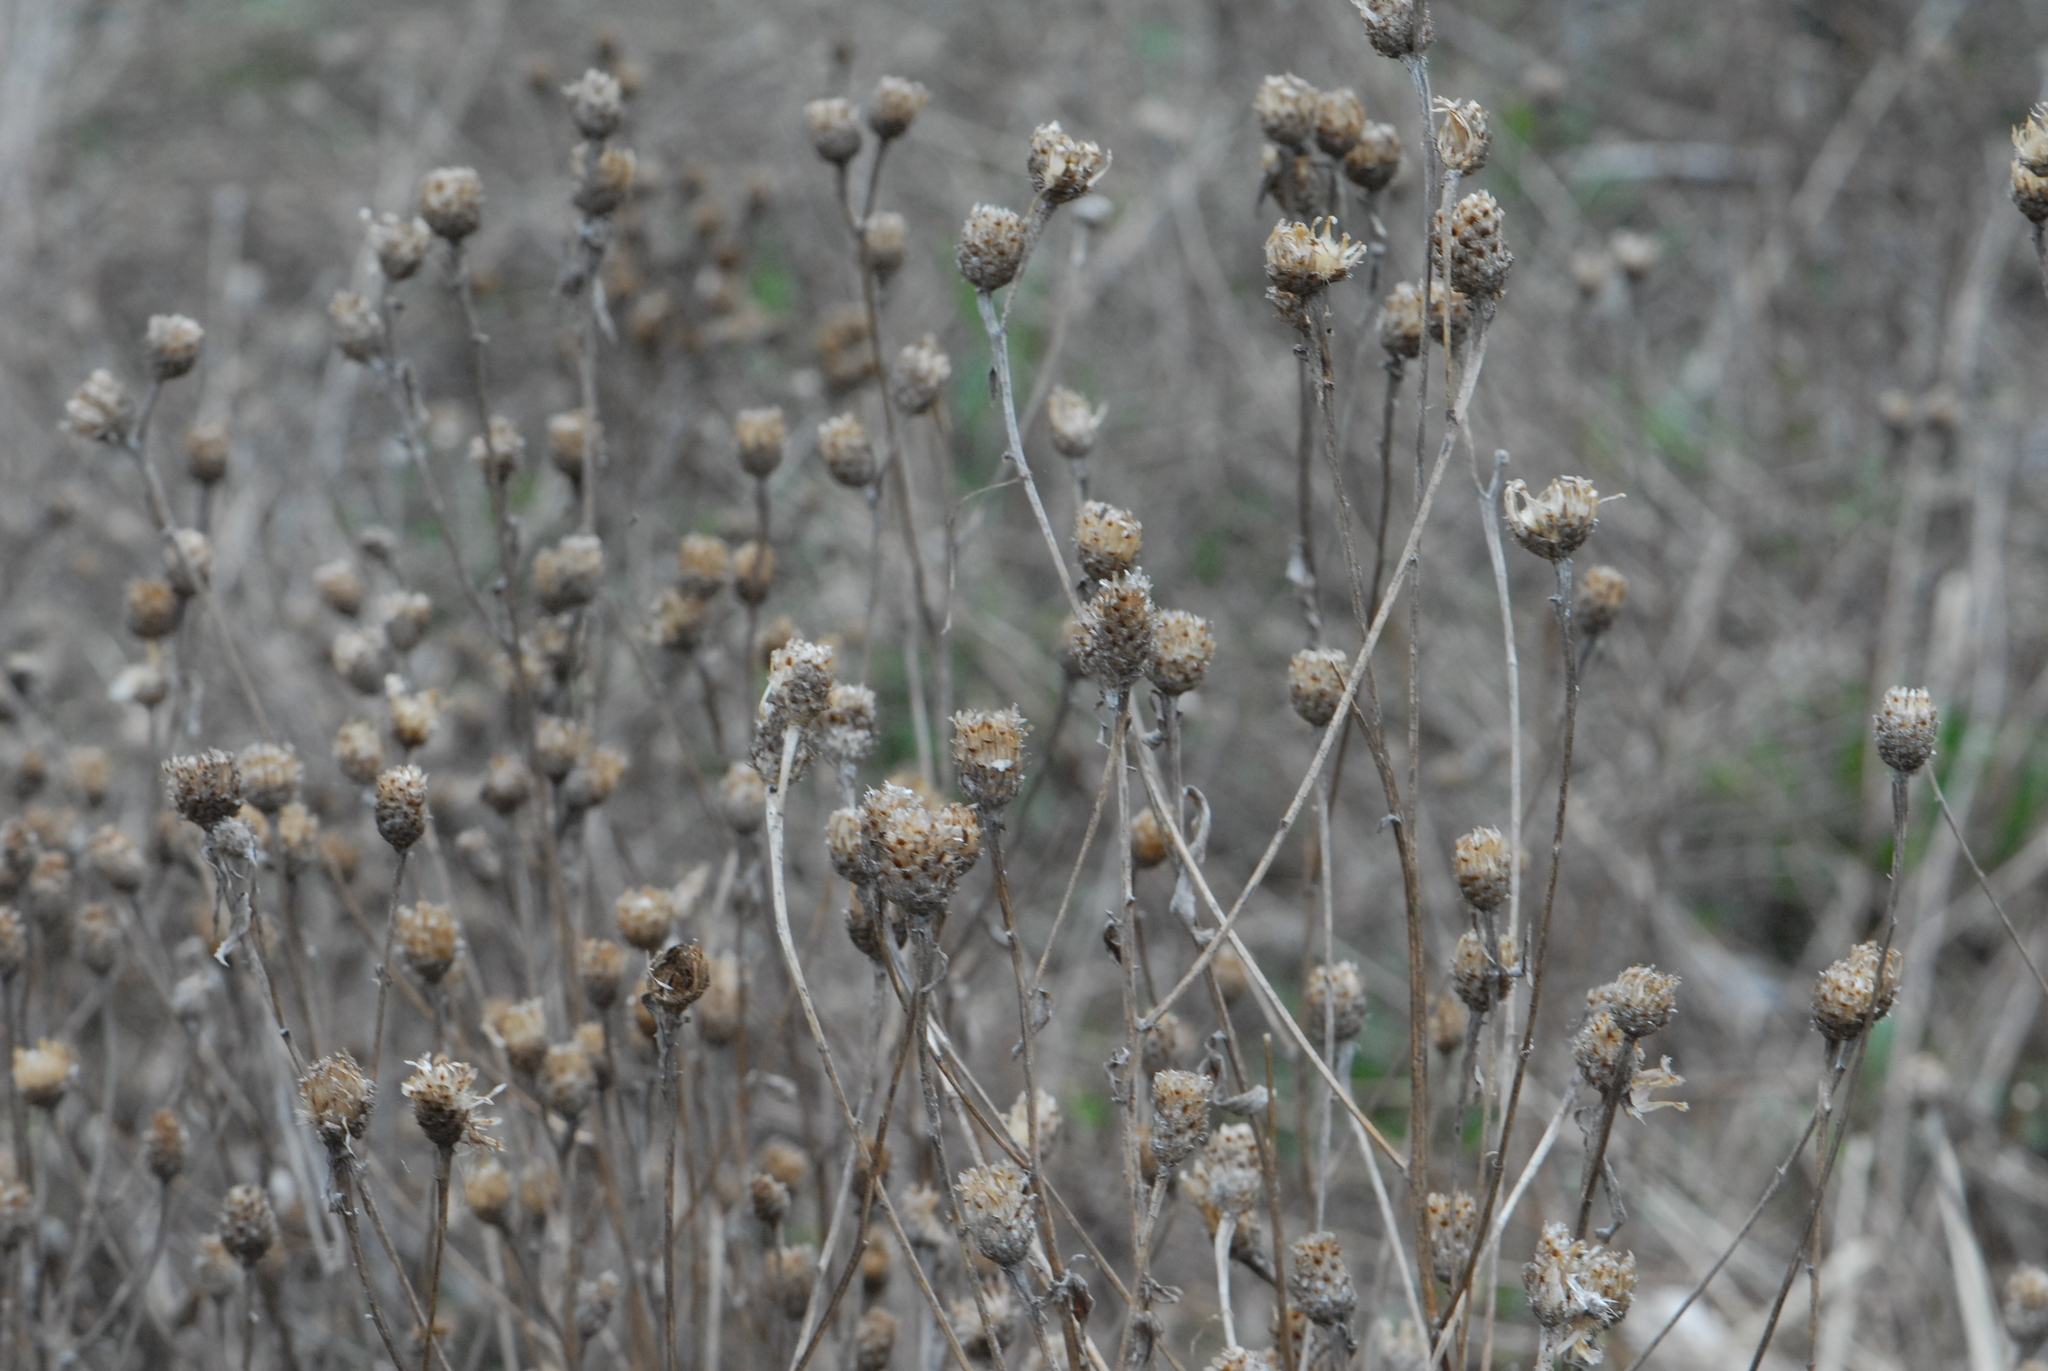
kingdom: Plantae
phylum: Tracheophyta
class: Magnoliopsida
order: Asterales
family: Asteraceae
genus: Centaurea
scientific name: Centaurea jacea
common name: Brown knapweed
